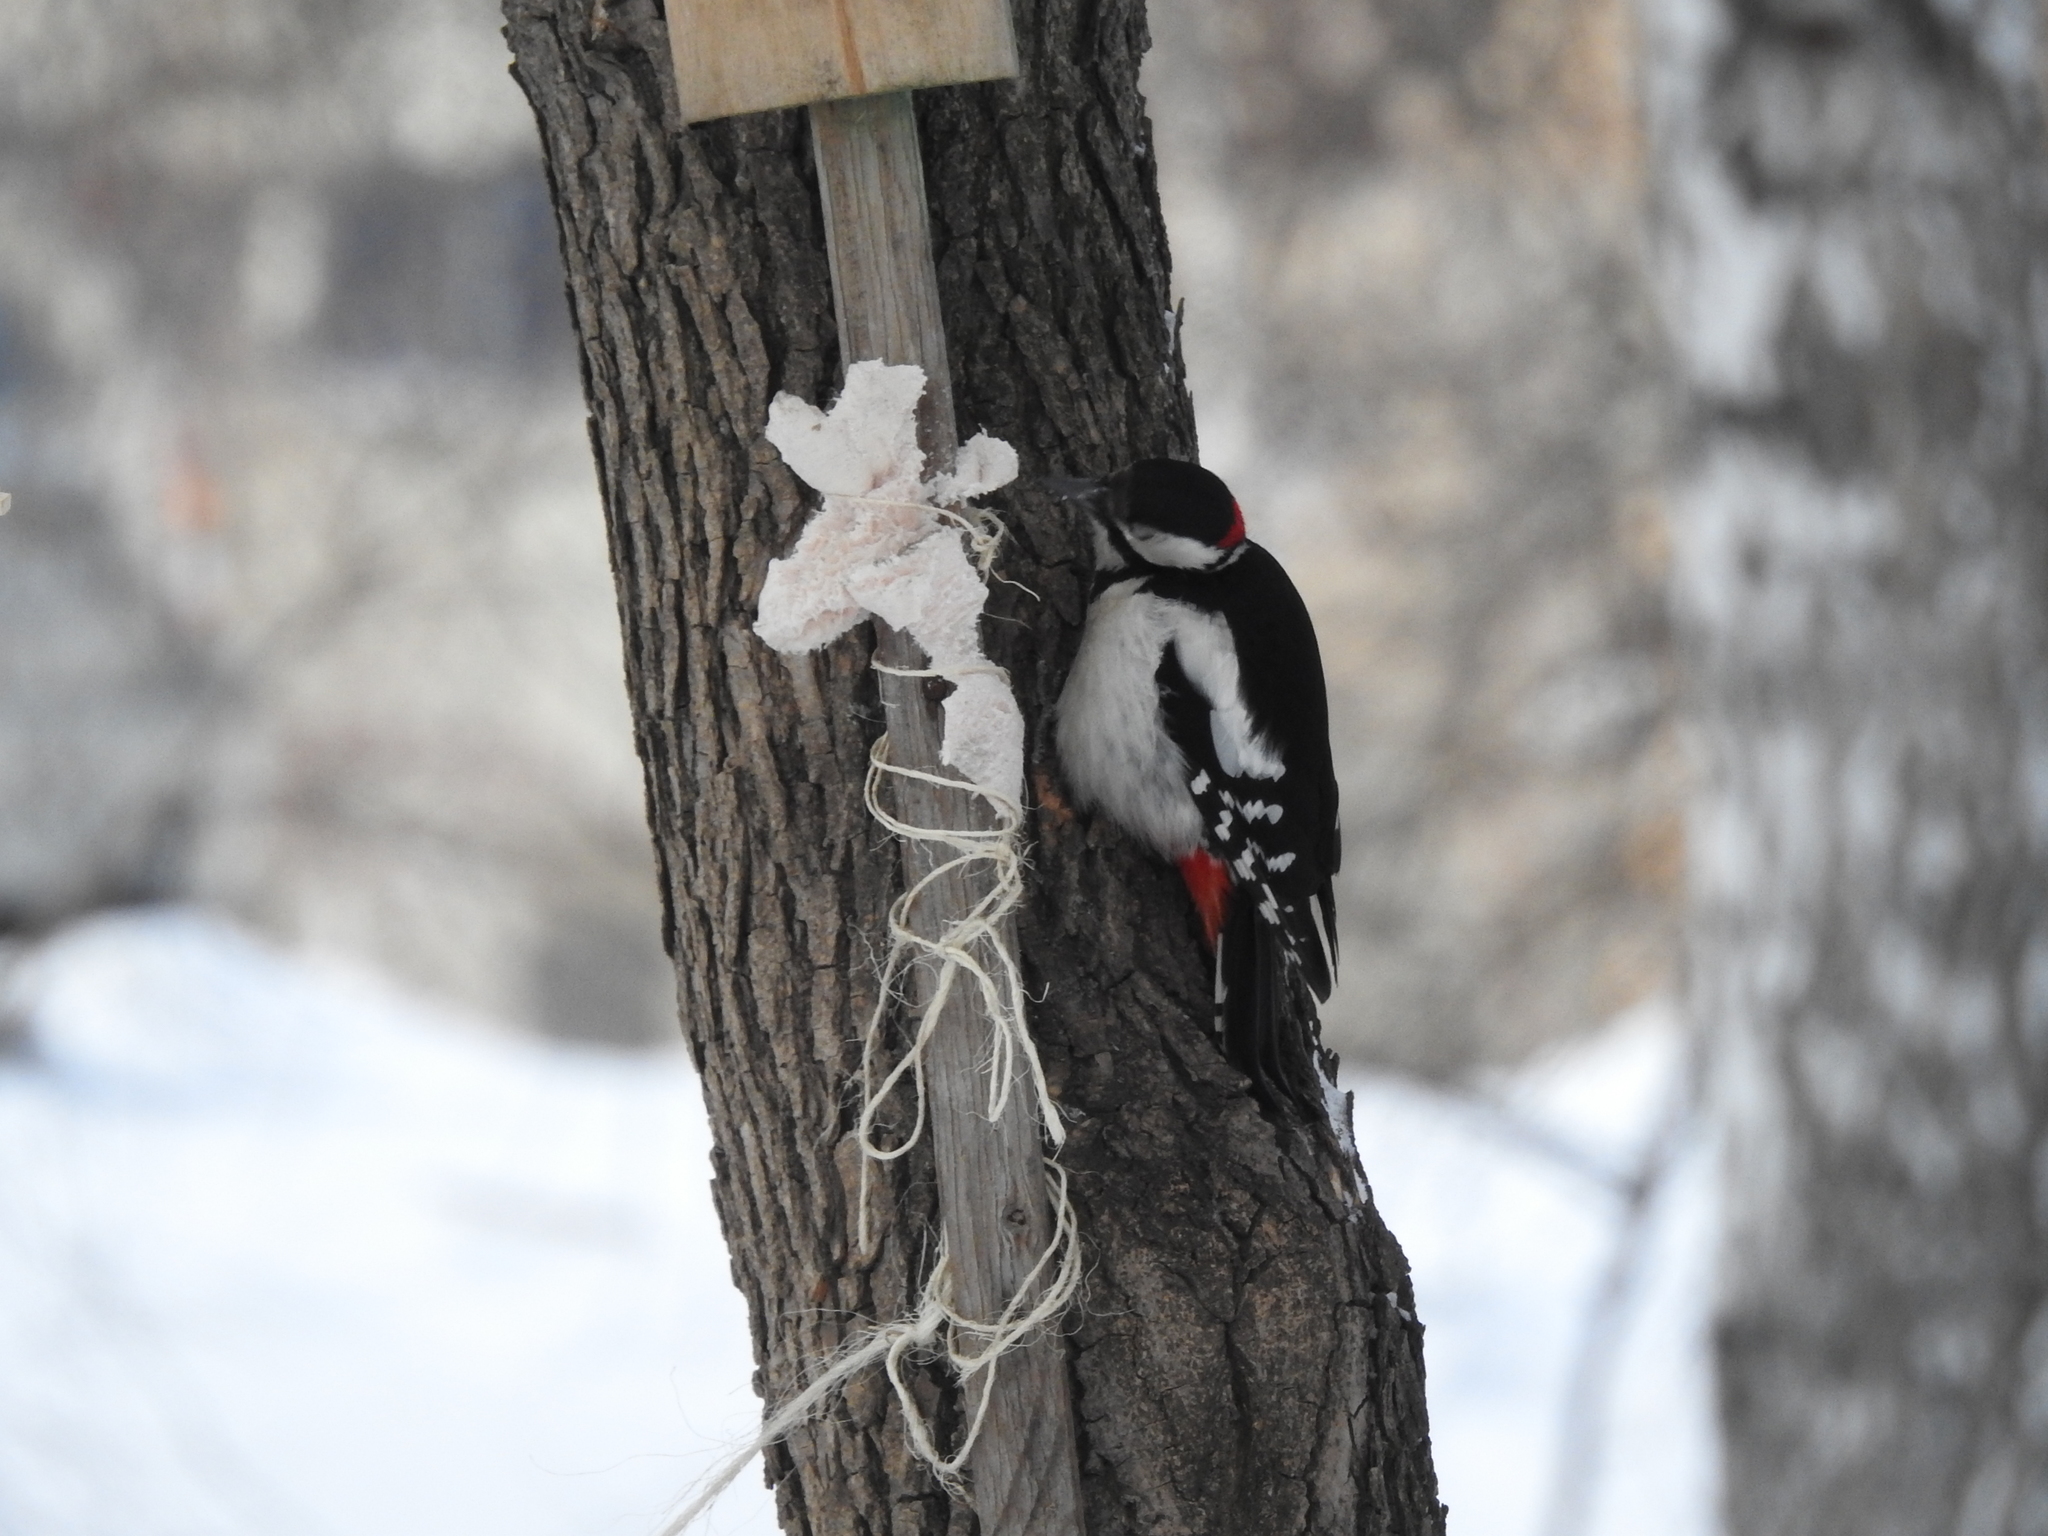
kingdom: Animalia
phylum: Chordata
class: Aves
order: Piciformes
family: Picidae
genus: Dendrocopos
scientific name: Dendrocopos major
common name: Great spotted woodpecker
